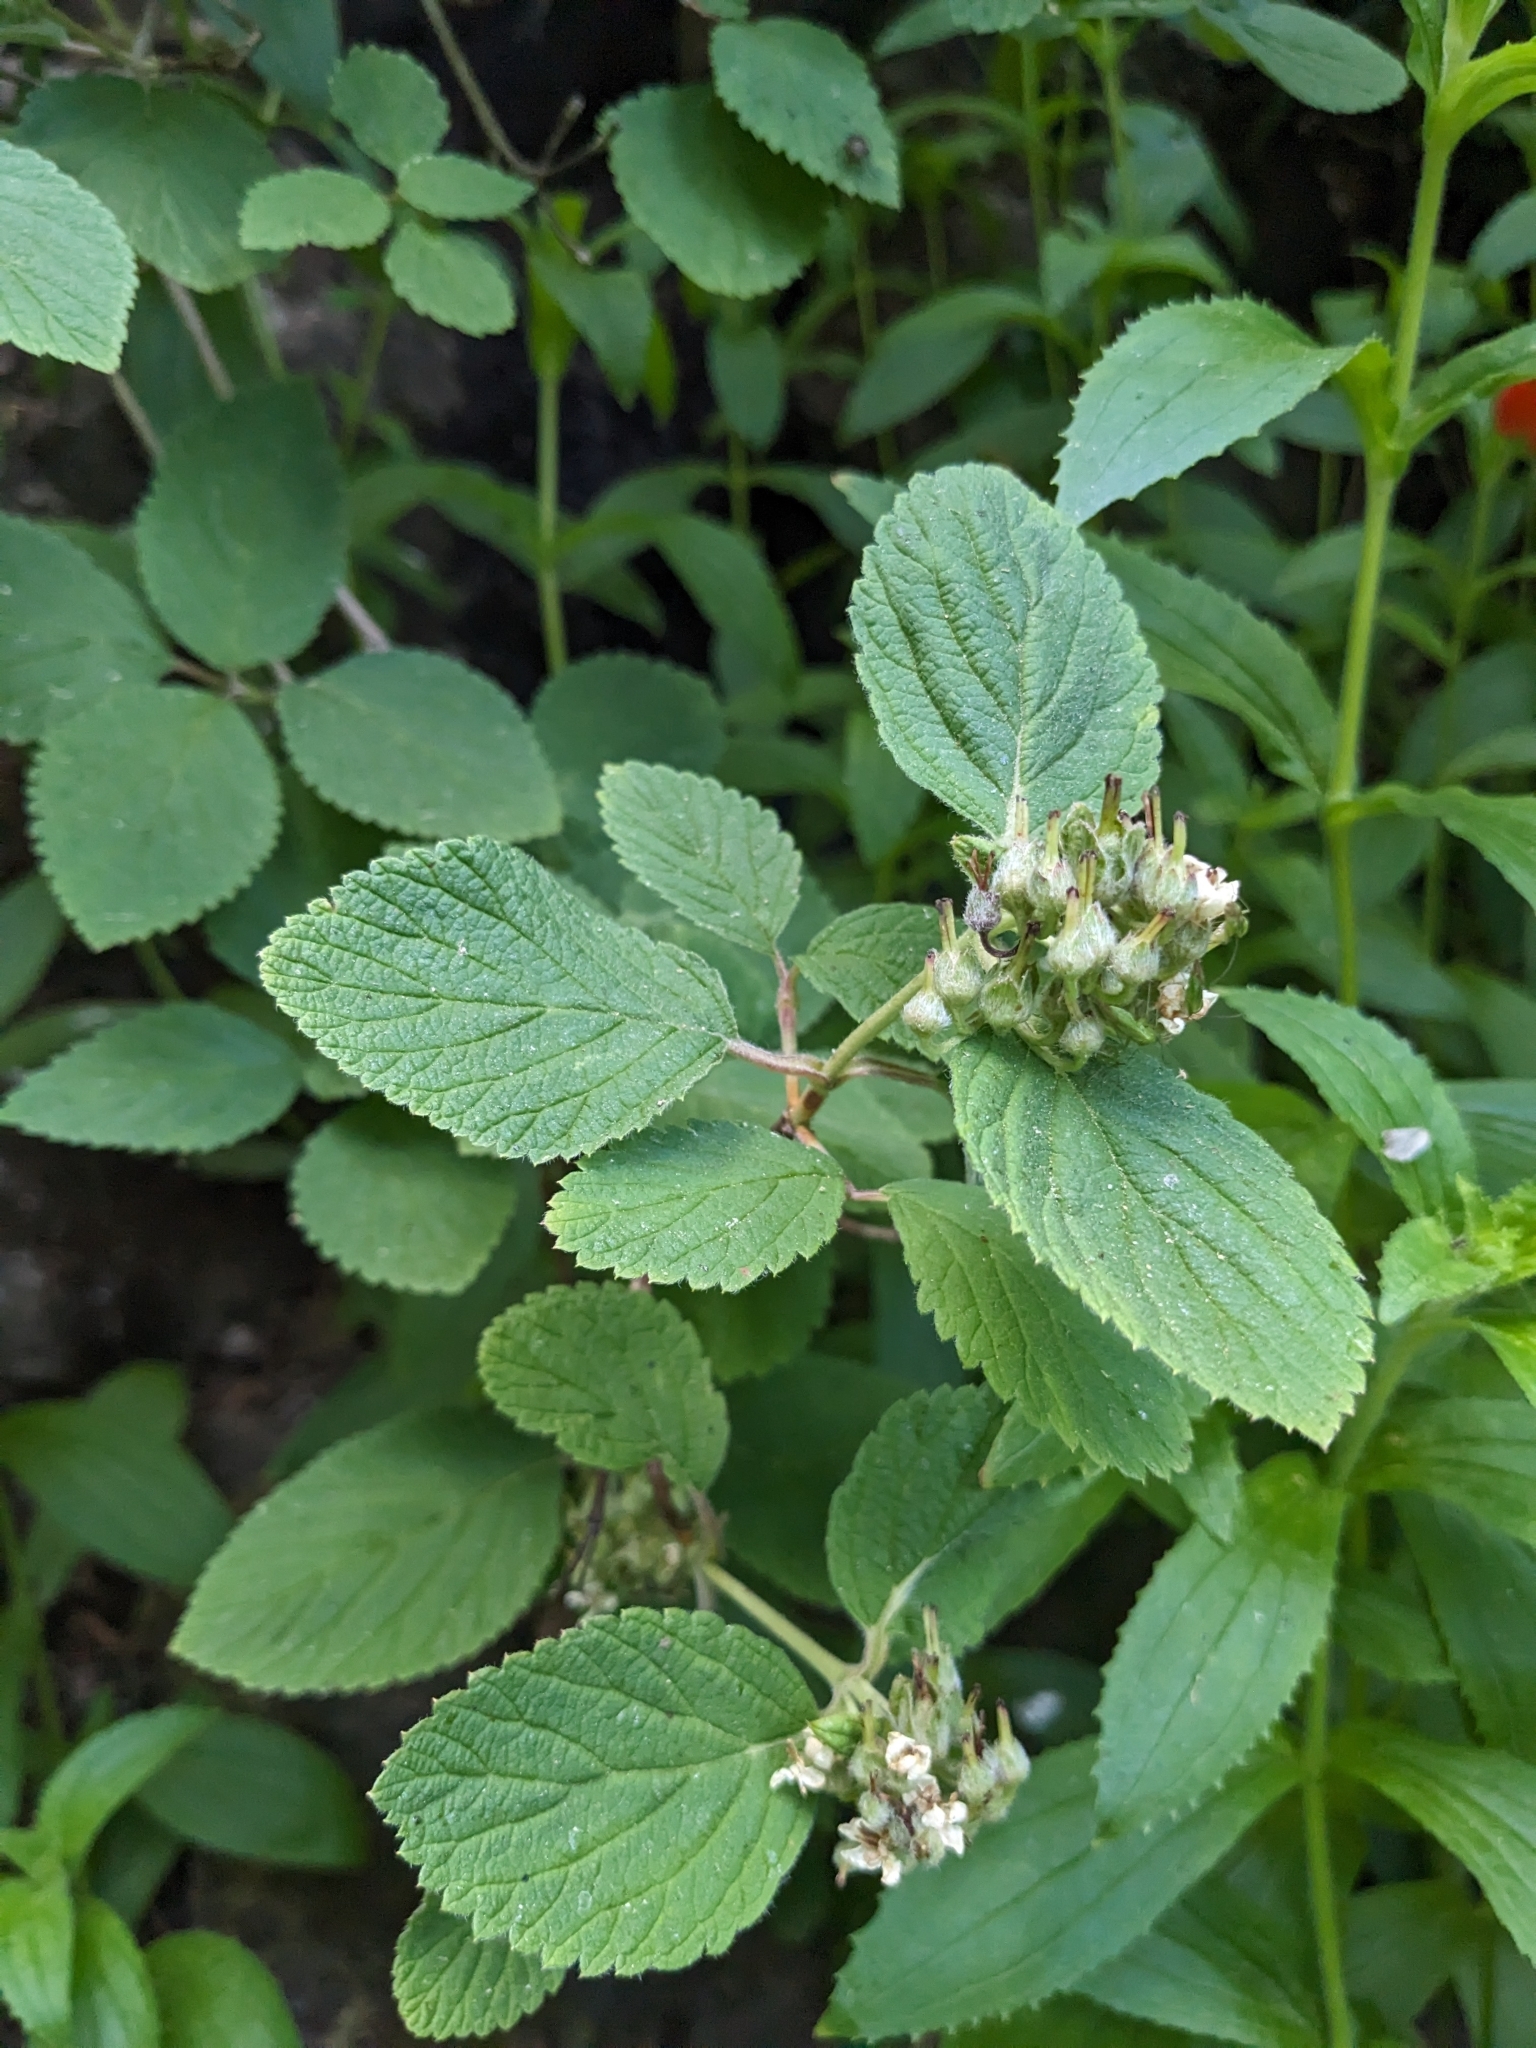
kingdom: Plantae
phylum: Tracheophyta
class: Magnoliopsida
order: Cornales
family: Hydrangeaceae
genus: Jamesia
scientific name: Jamesia americana
